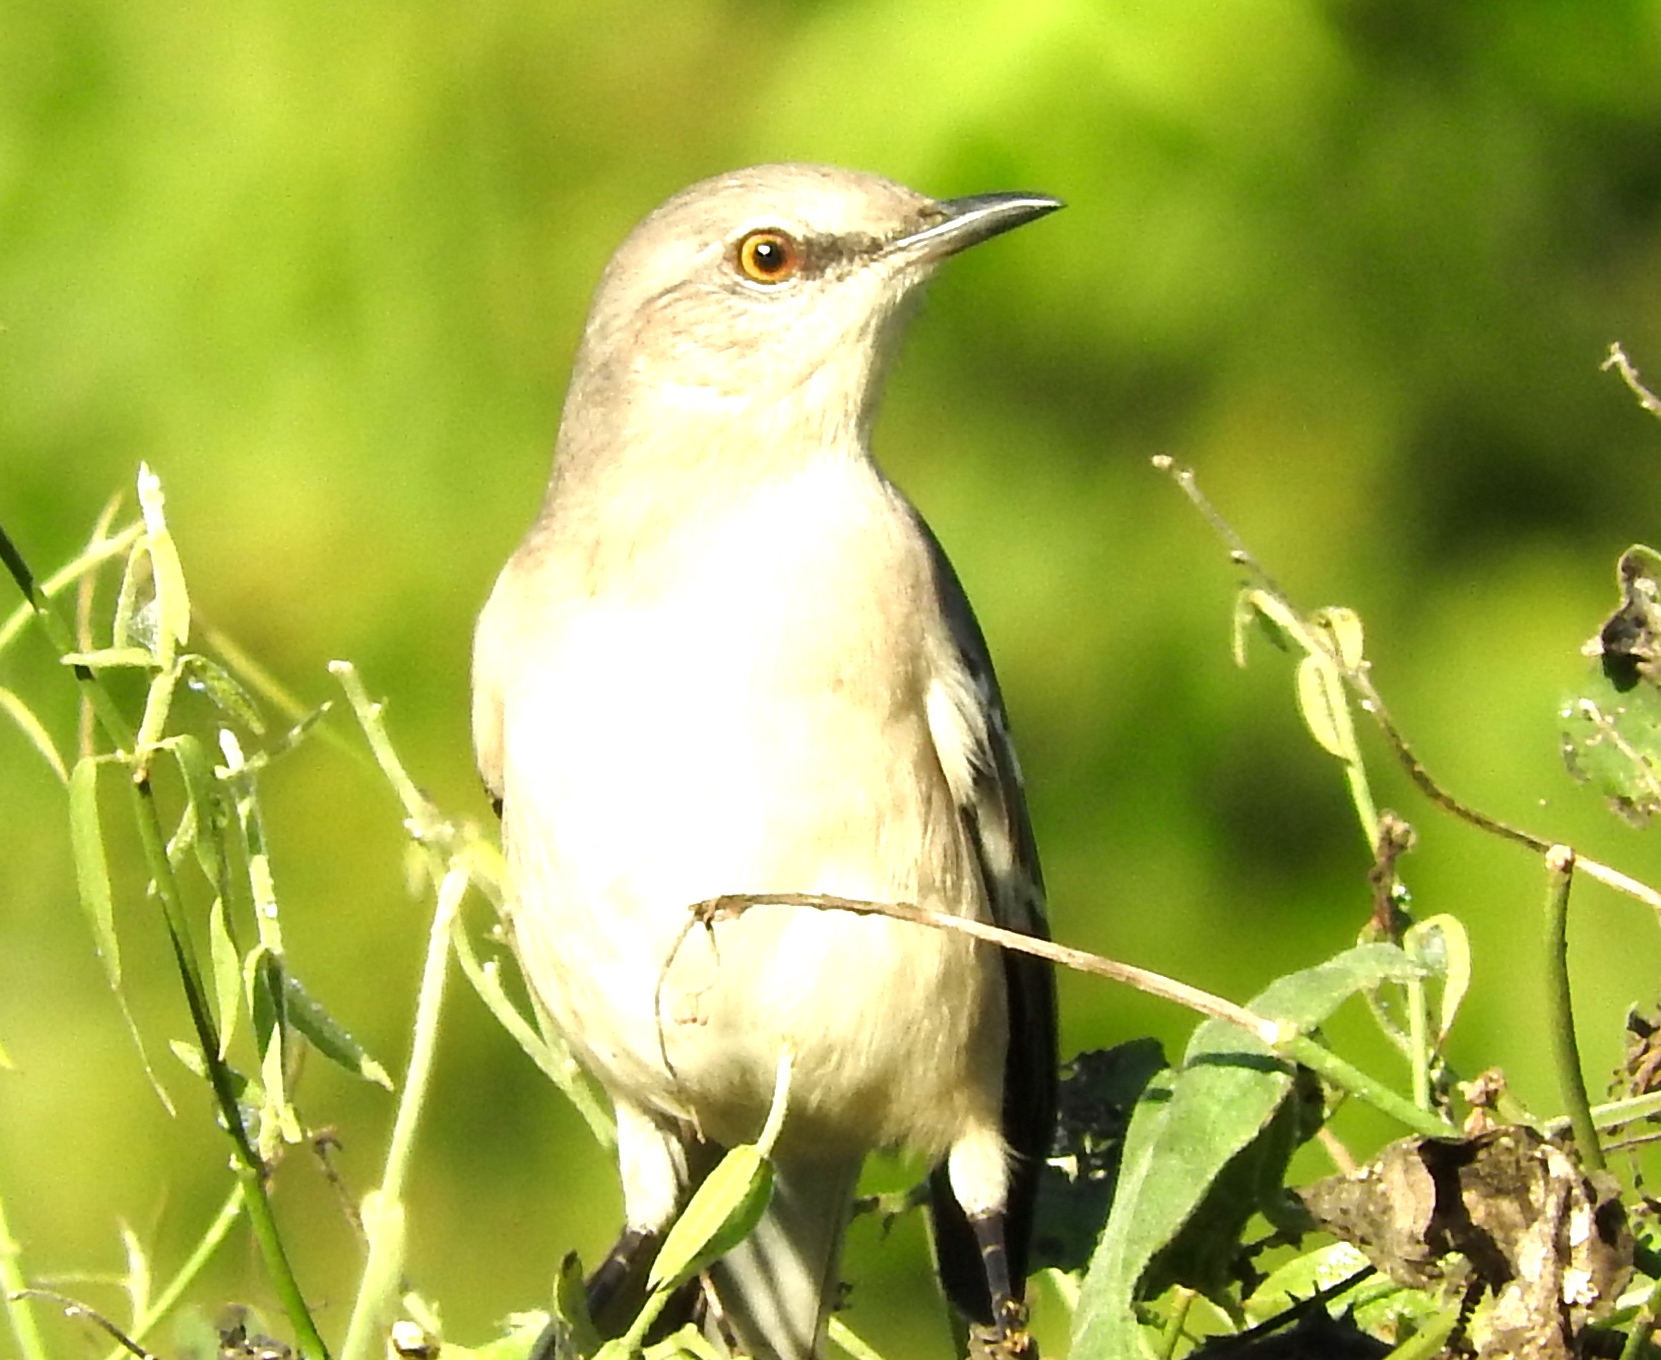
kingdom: Animalia
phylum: Chordata
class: Aves
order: Passeriformes
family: Mimidae
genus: Mimus
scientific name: Mimus polyglottos
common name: Northern mockingbird
